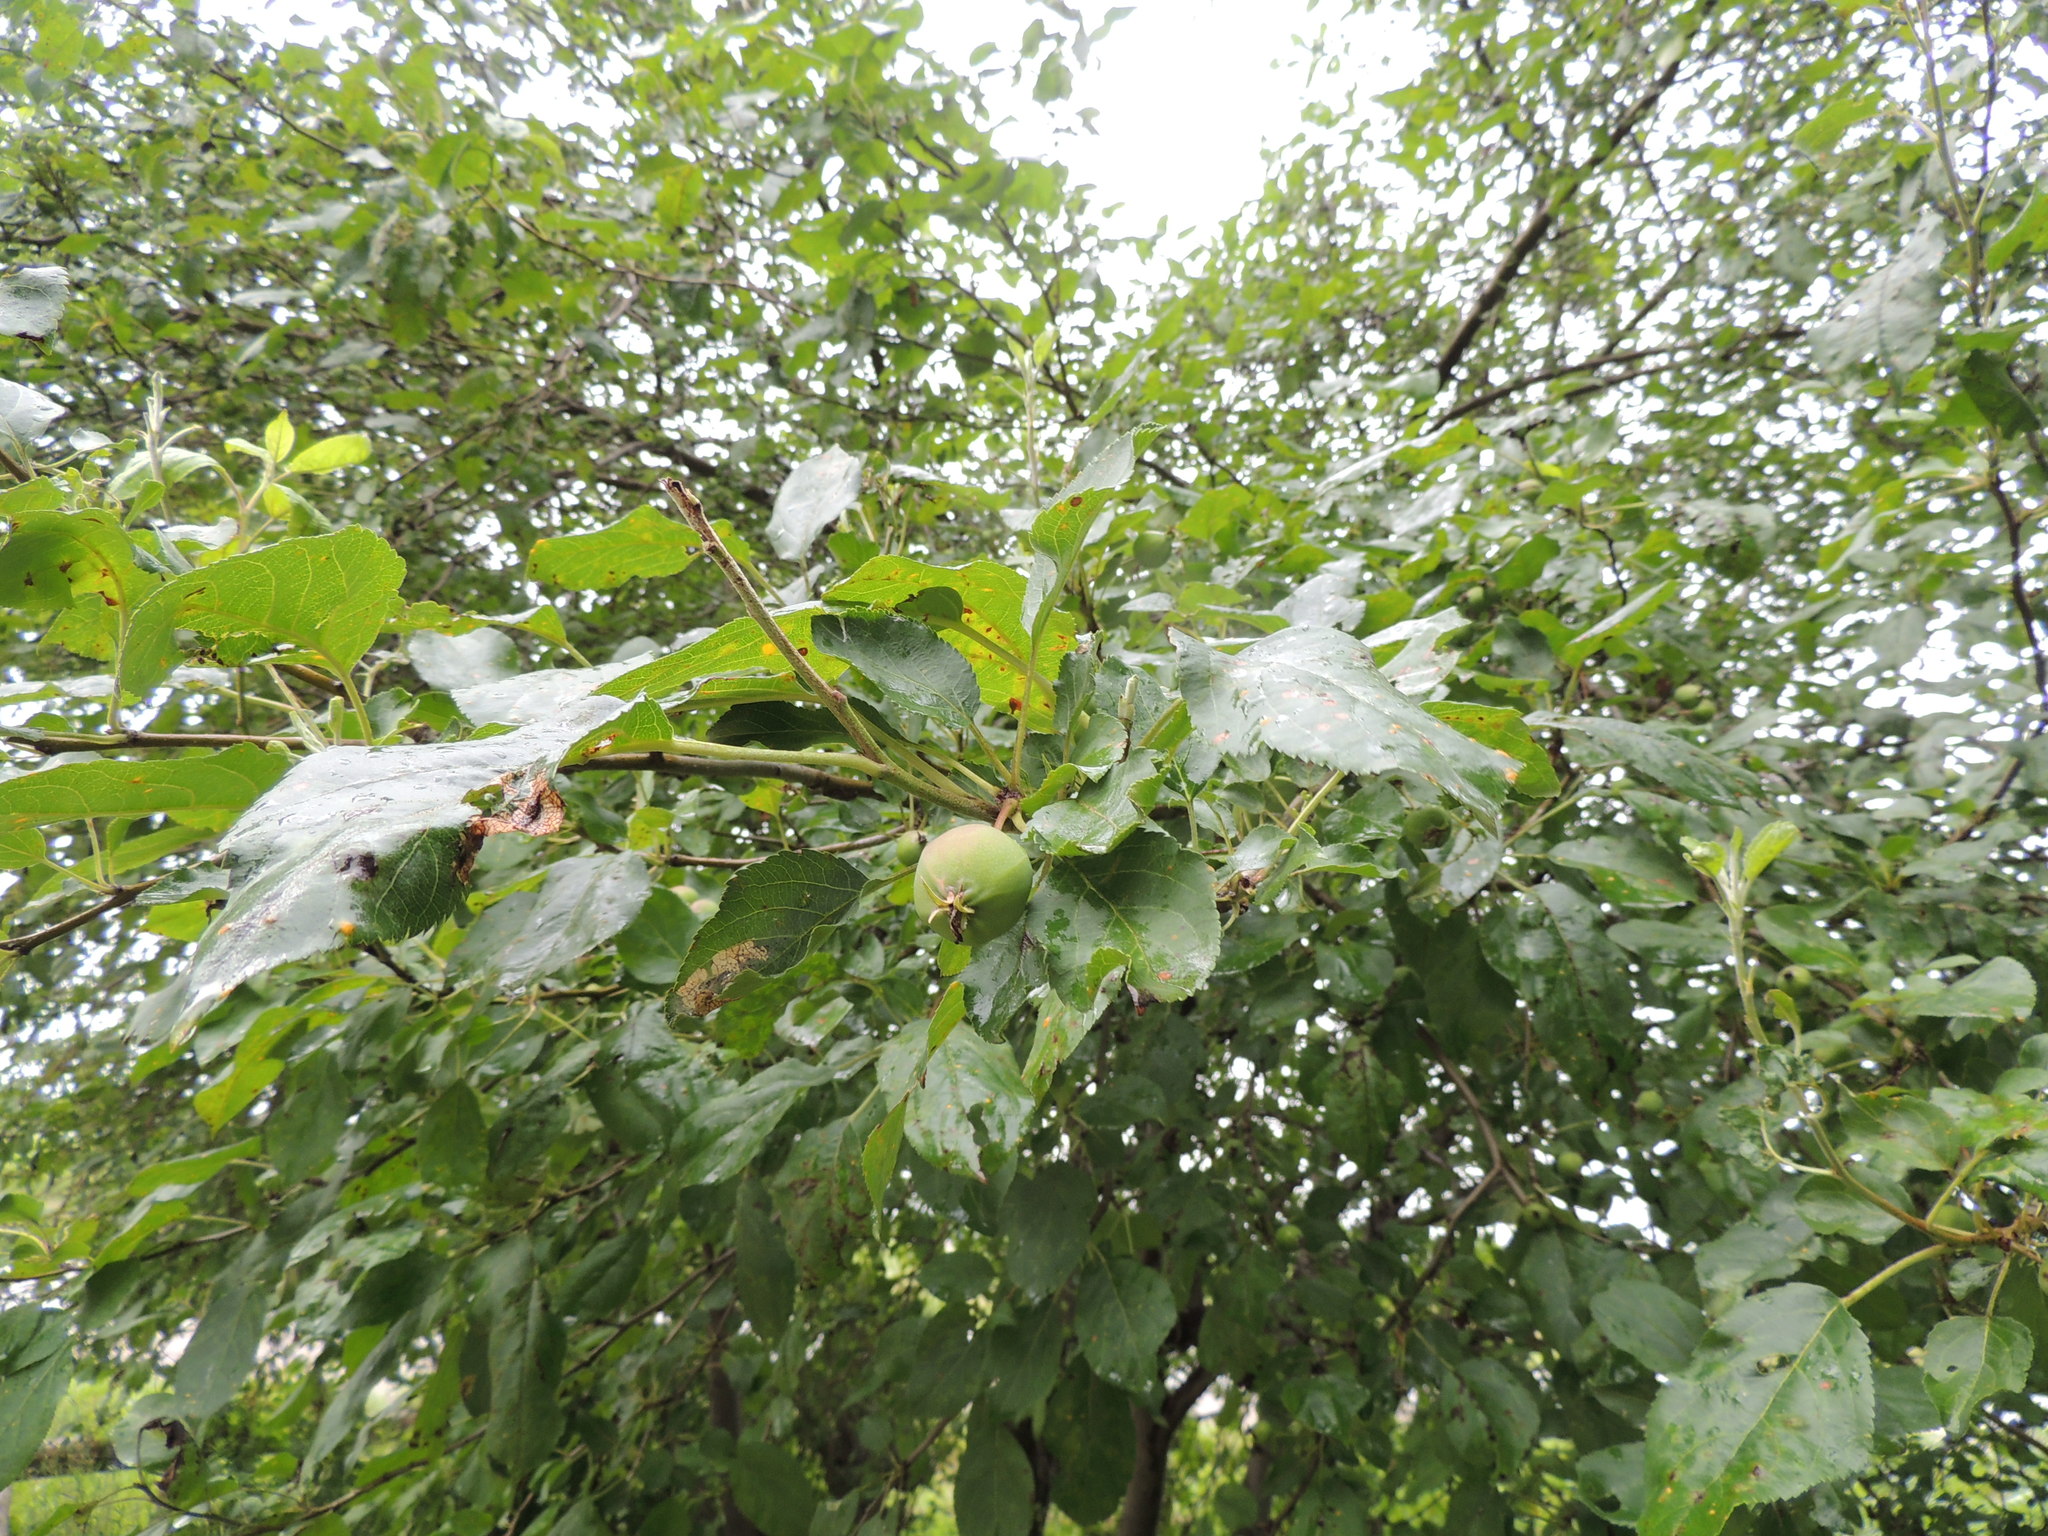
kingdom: Plantae
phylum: Tracheophyta
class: Magnoliopsida
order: Rosales
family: Rosaceae
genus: Malus
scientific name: Malus domestica
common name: Apple
